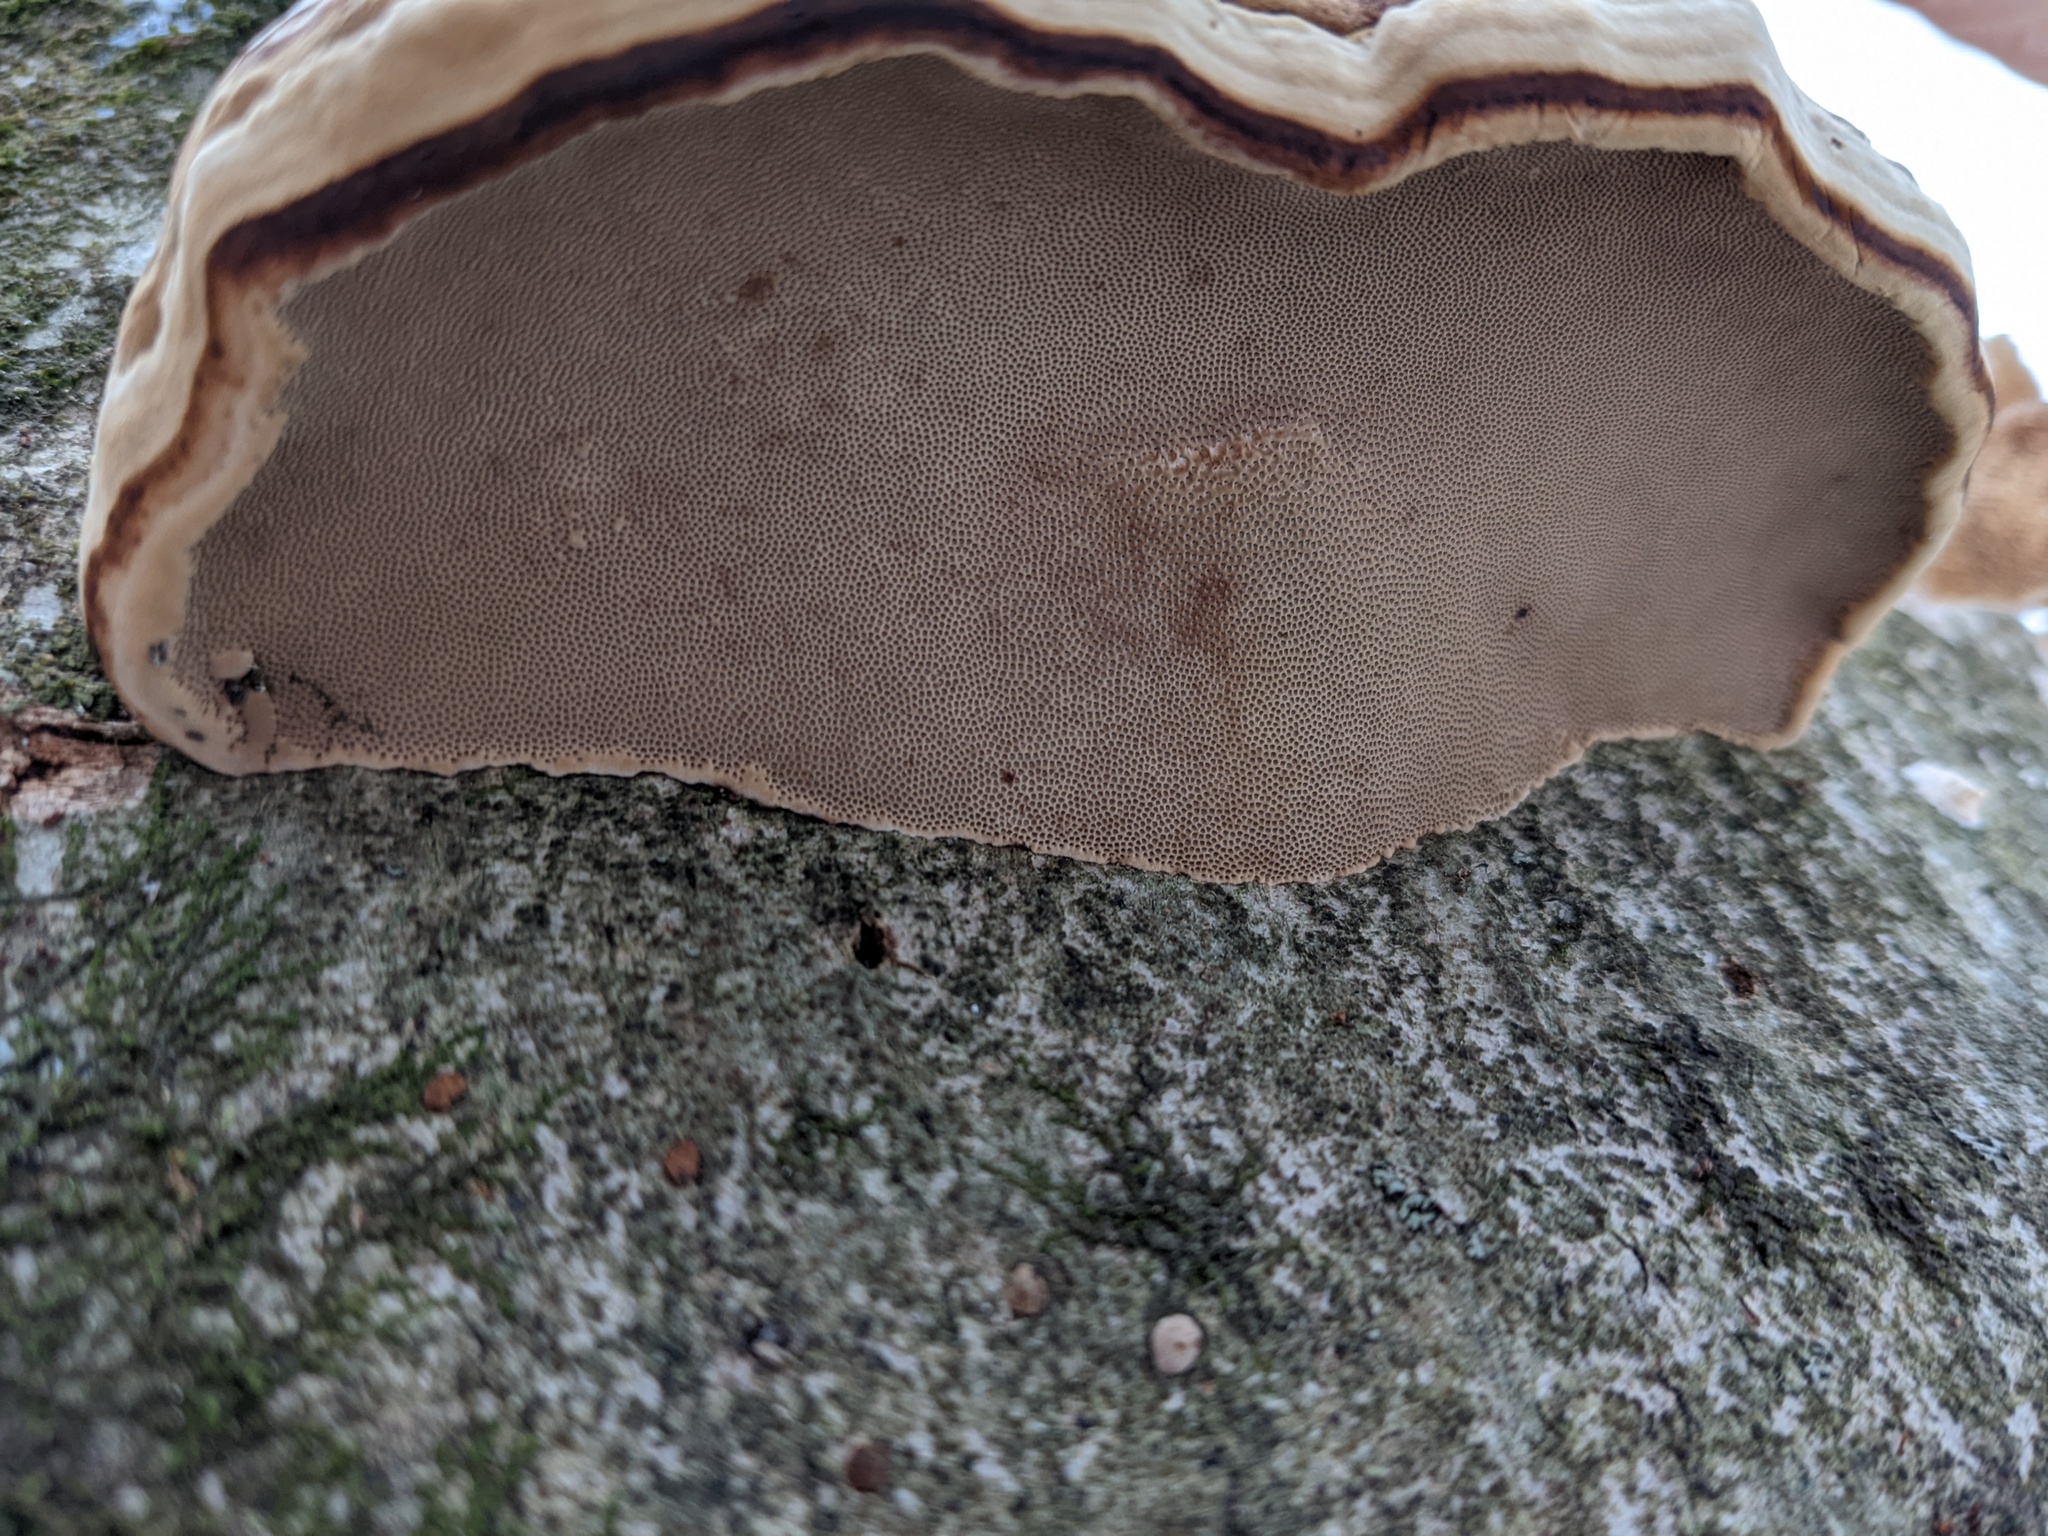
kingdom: Fungi
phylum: Basidiomycota
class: Agaricomycetes
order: Polyporales
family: Polyporaceae
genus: Fomes
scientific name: Fomes fomentarius
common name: Hoof fungus
